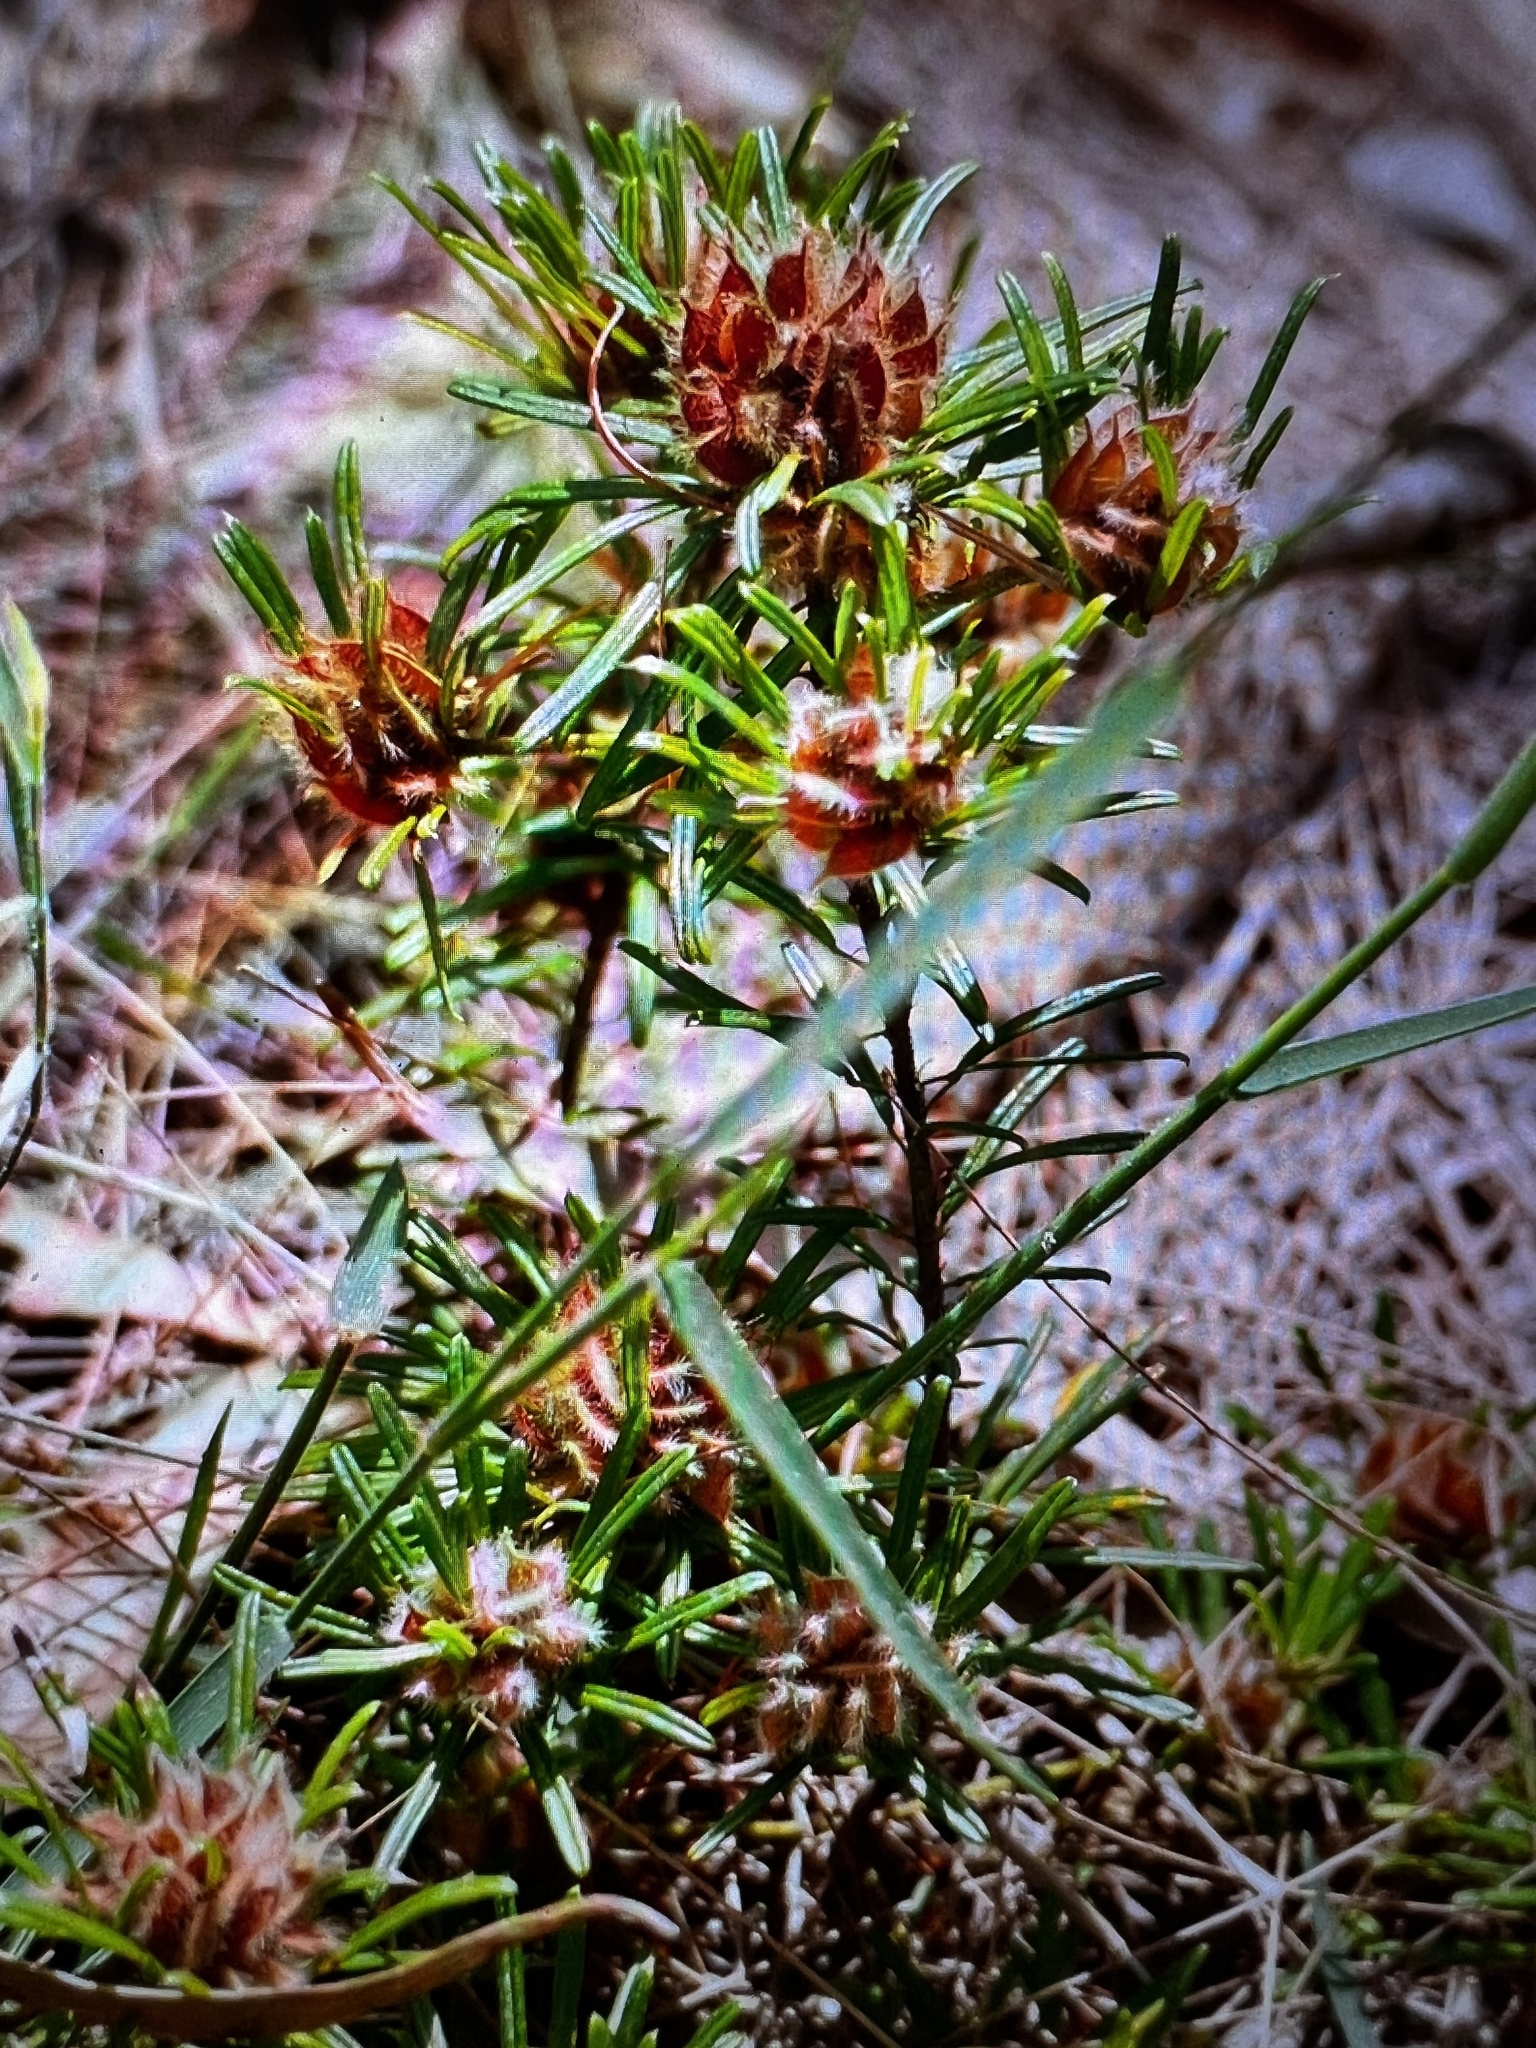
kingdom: Plantae
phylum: Tracheophyta
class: Magnoliopsida
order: Fabales
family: Fabaceae
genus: Pultenaea
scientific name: Pultenaea petiolaris
